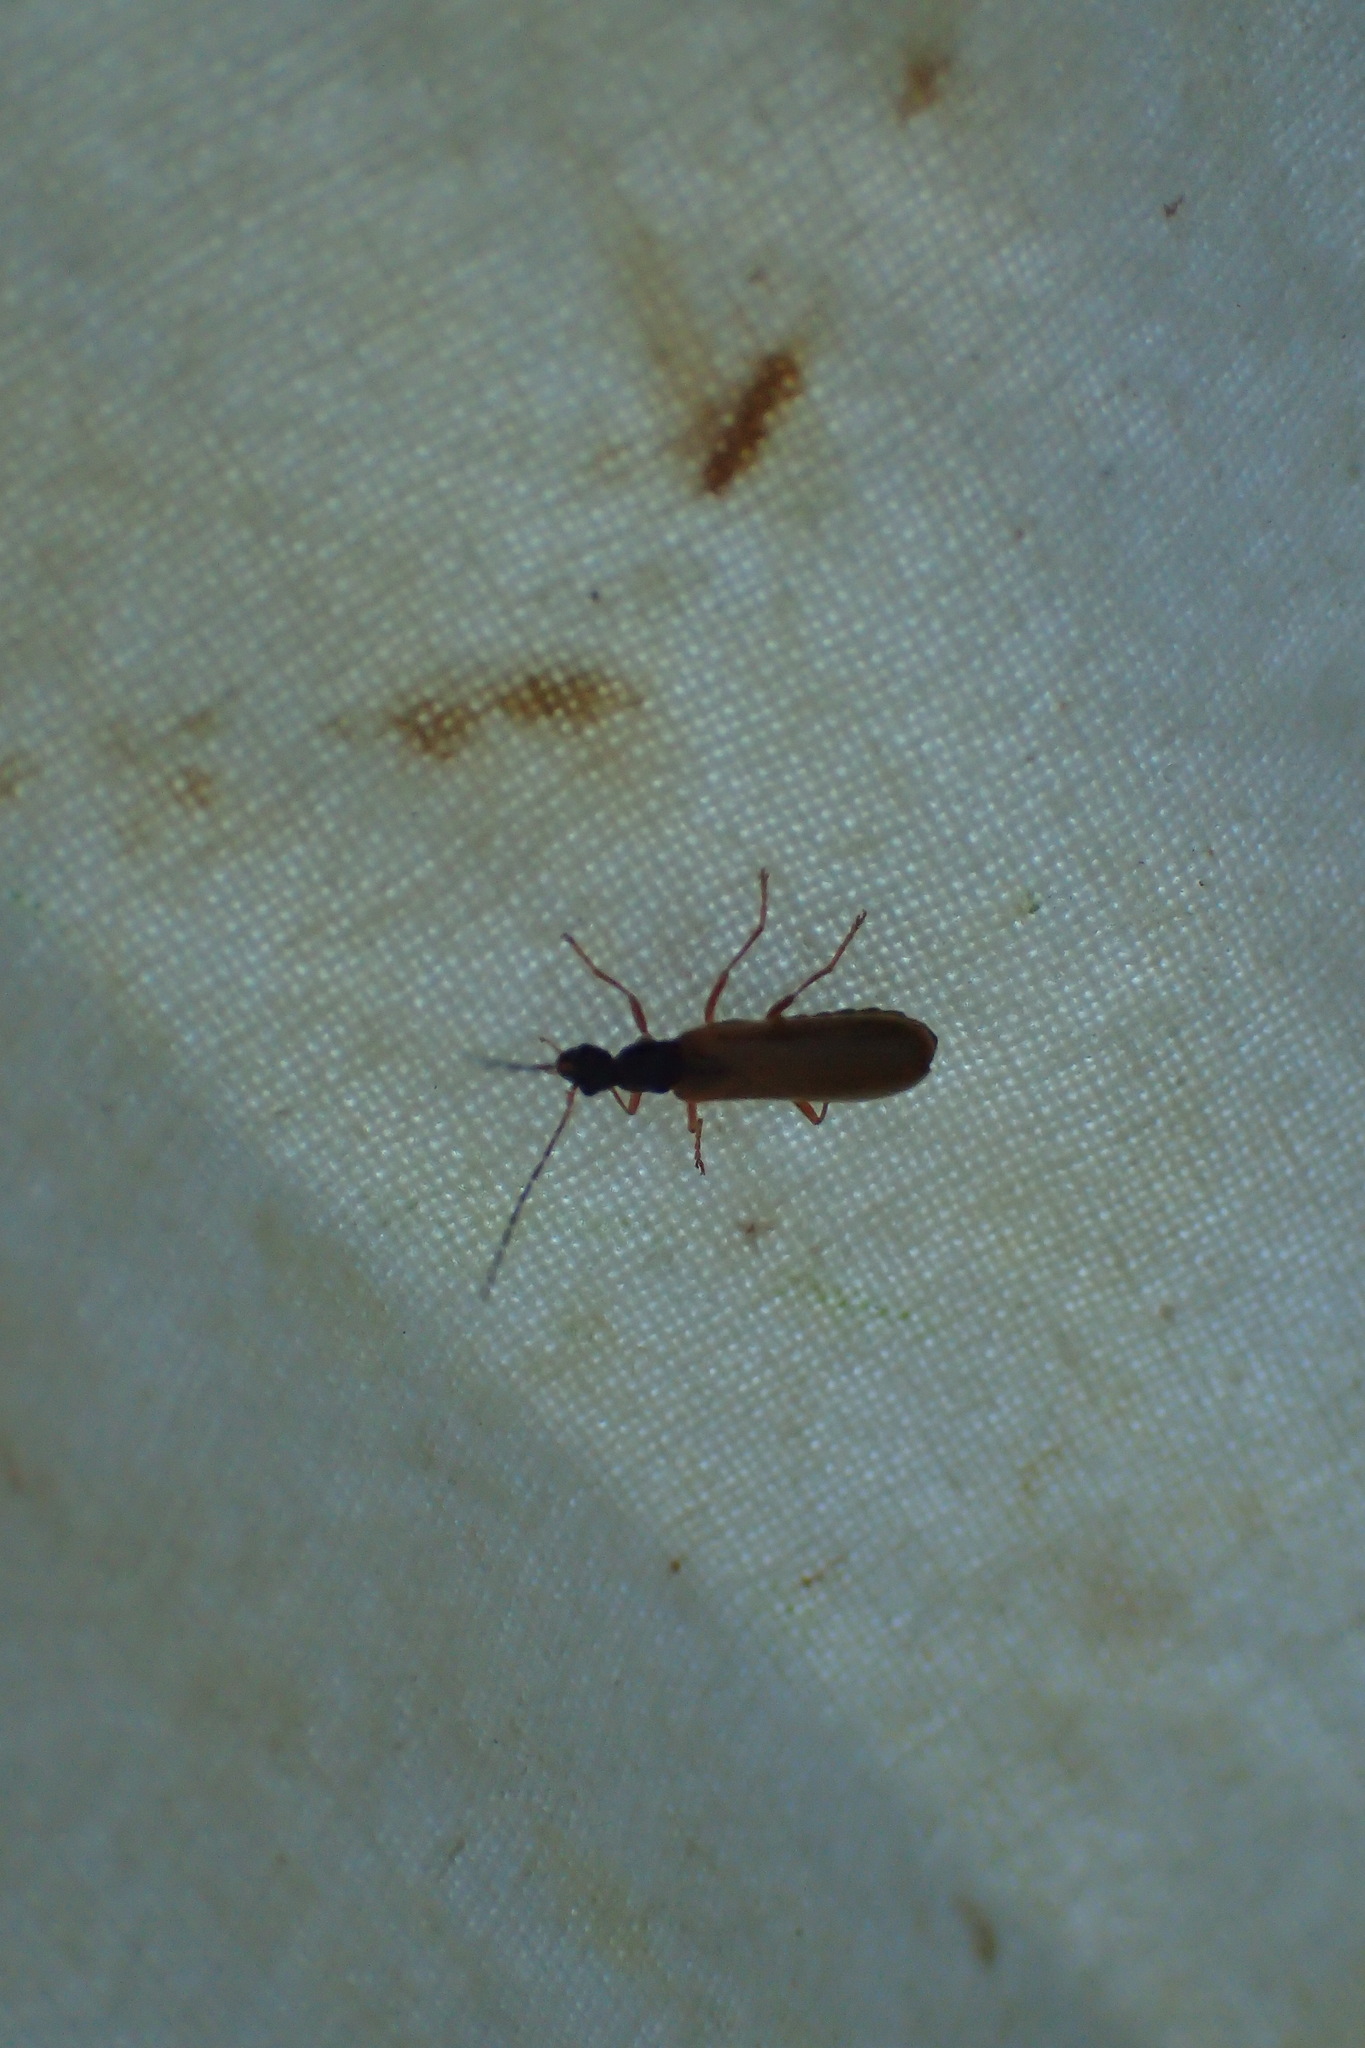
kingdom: Animalia
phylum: Arthropoda
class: Insecta
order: Coleoptera
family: Cantharidae
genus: Rhagonycha
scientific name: Rhagonycha lignosa
